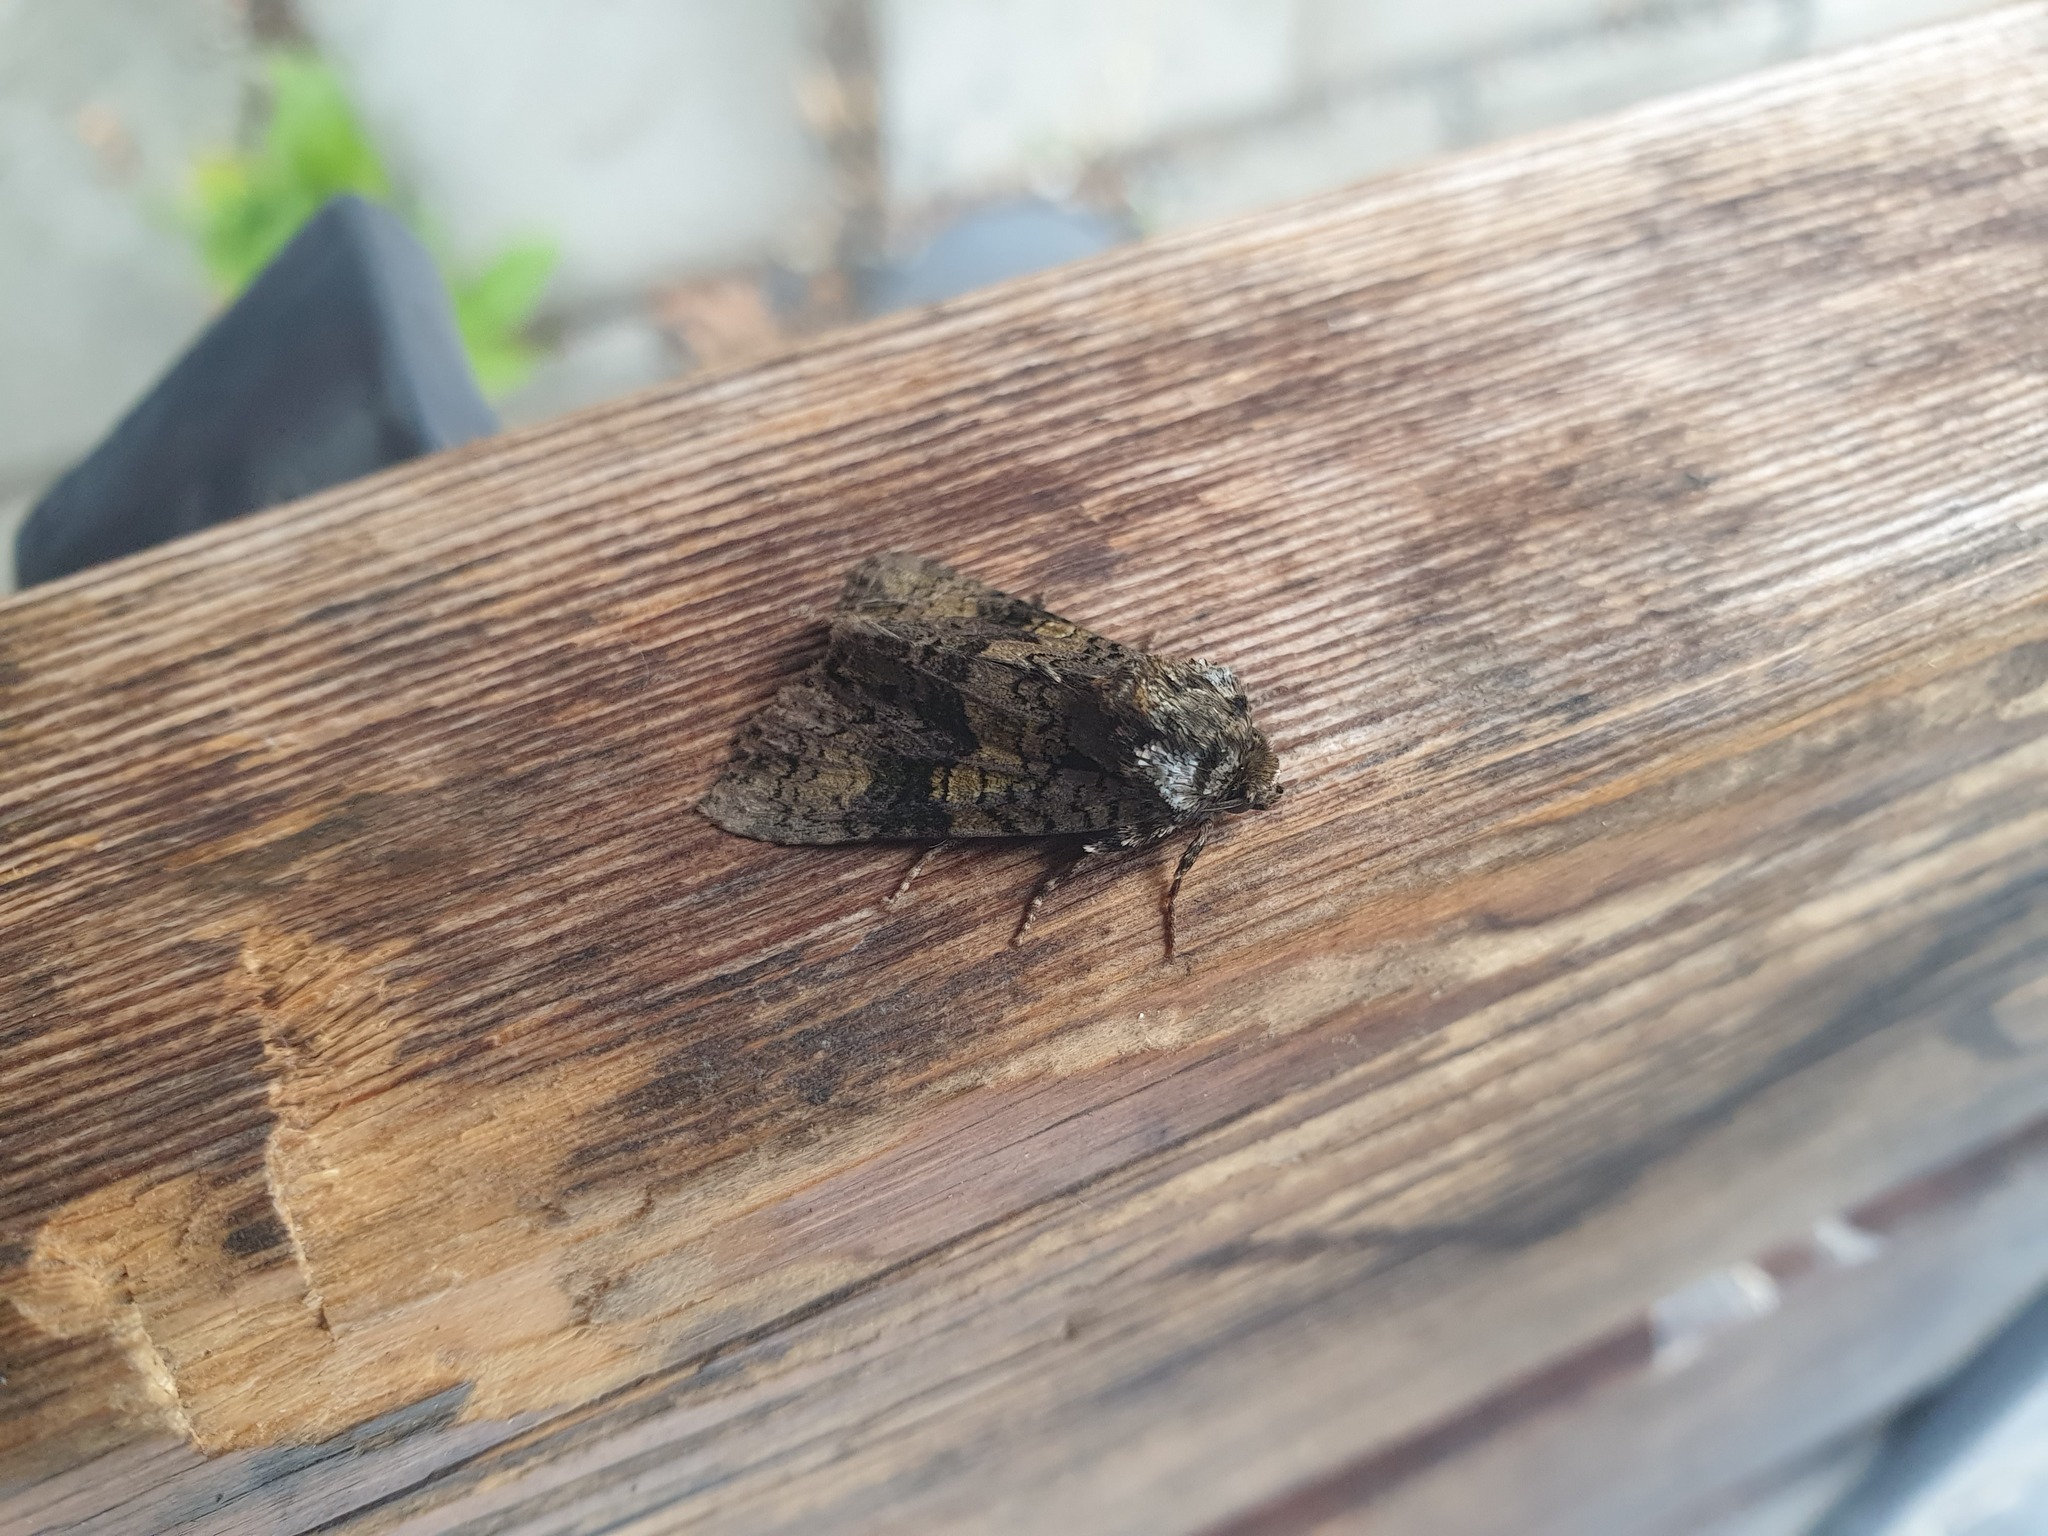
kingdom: Animalia
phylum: Arthropoda
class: Insecta
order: Lepidoptera
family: Noctuidae
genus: Craniophora
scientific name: Craniophora ligustri
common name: Coronet
